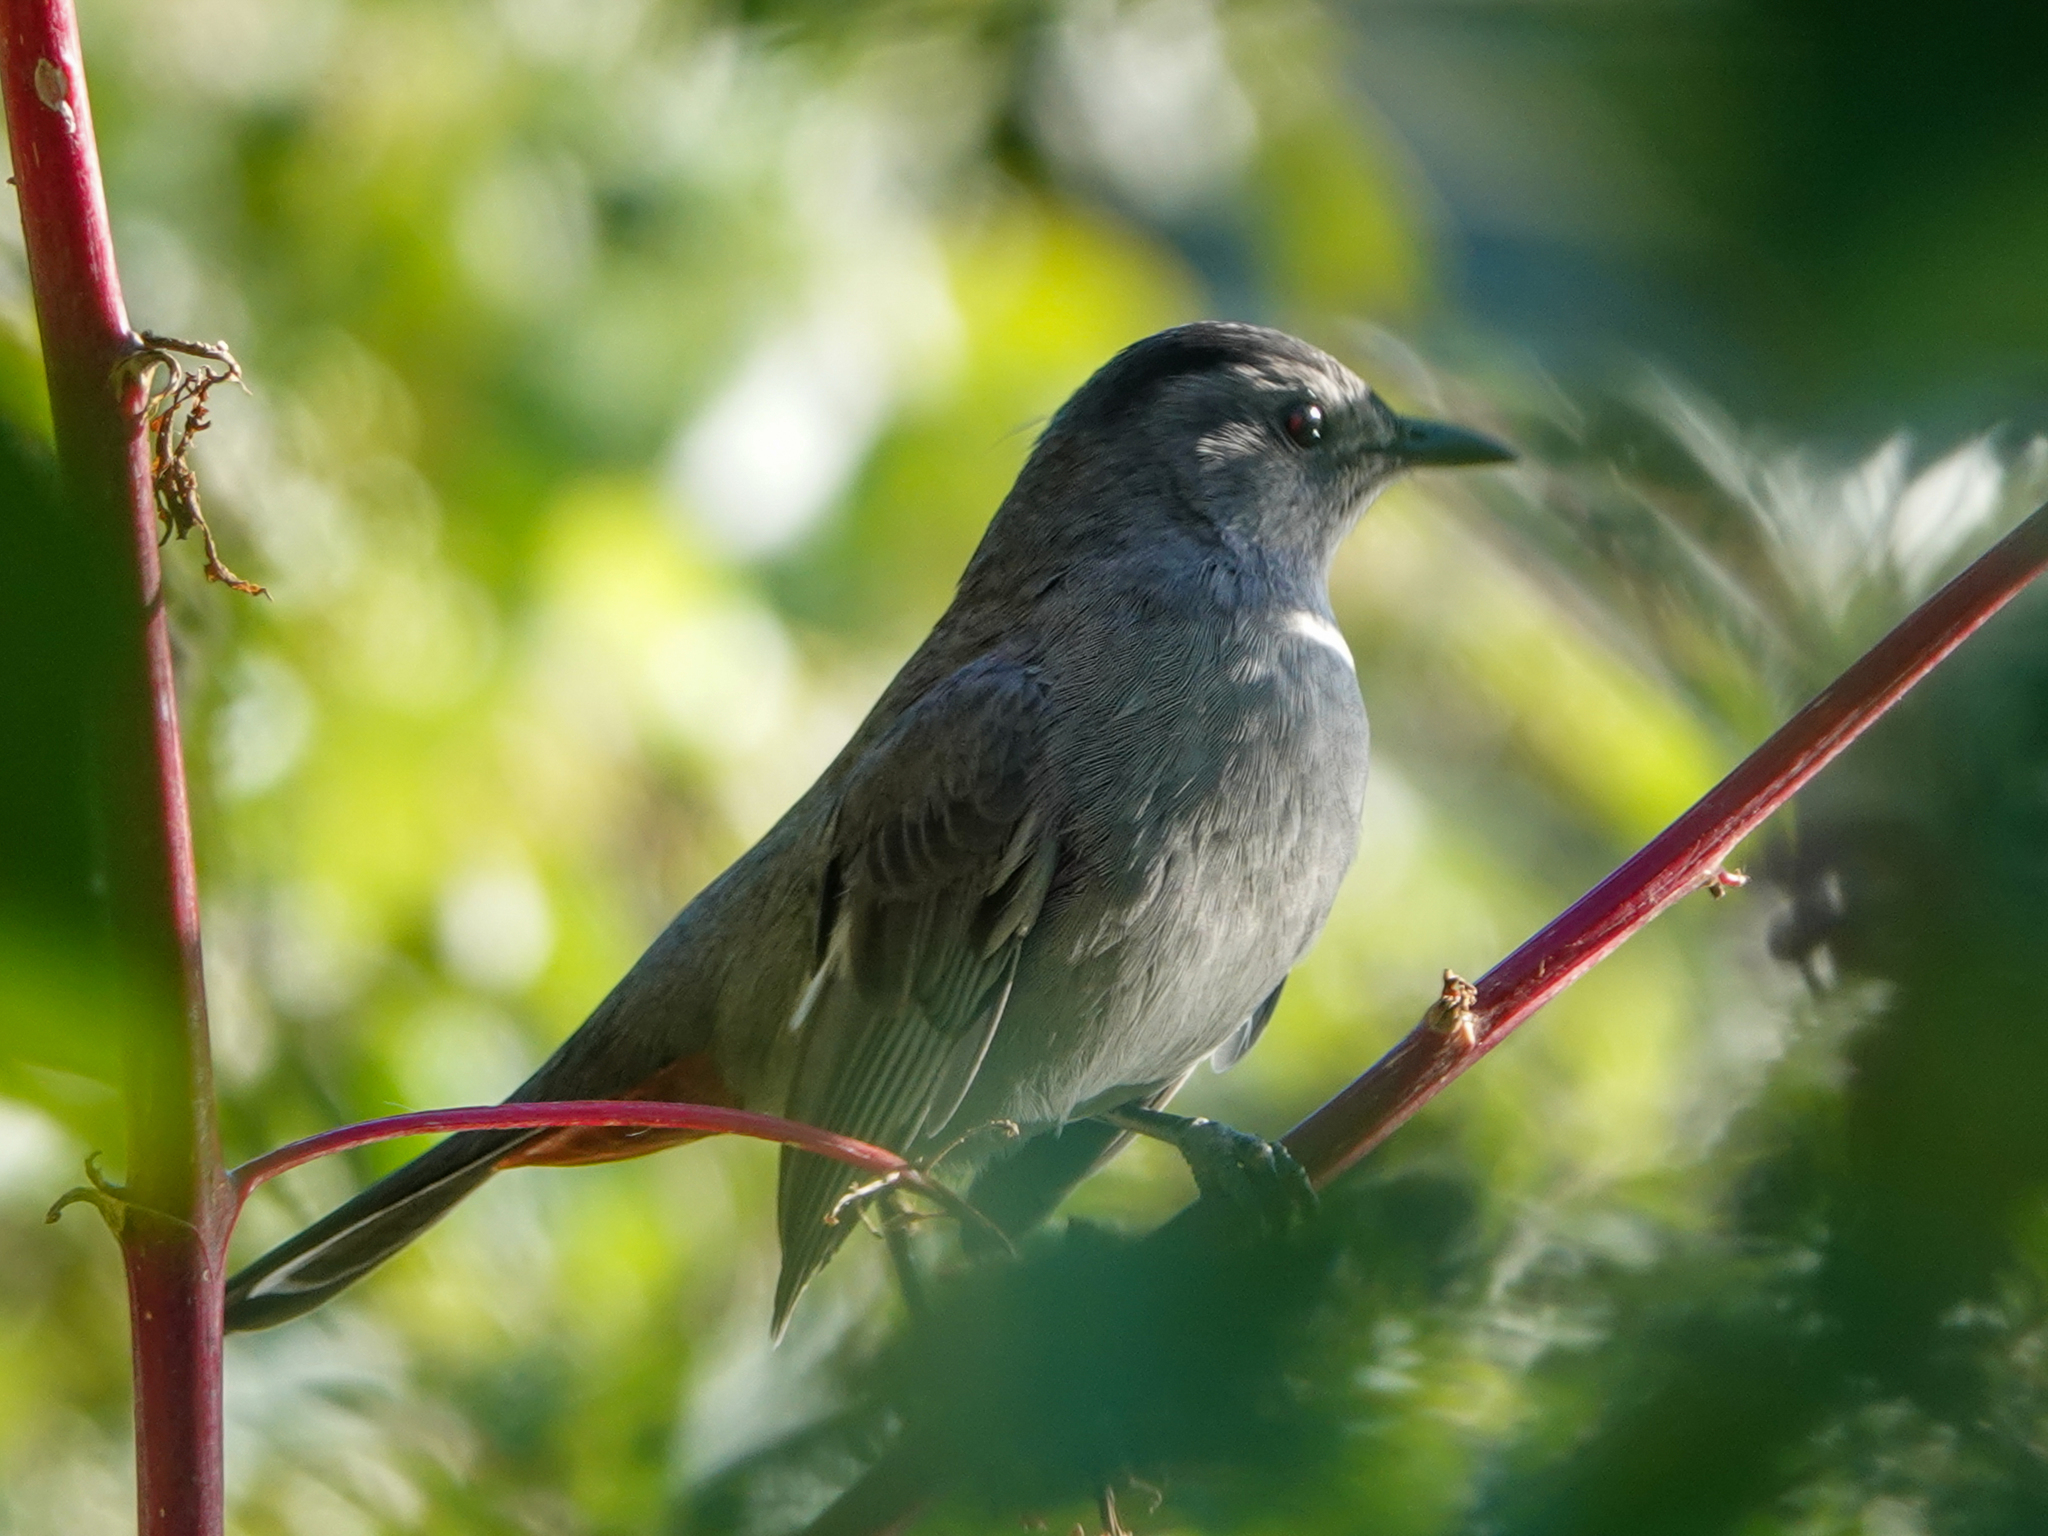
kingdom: Animalia
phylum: Chordata
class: Aves
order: Passeriformes
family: Mimidae
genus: Dumetella
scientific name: Dumetella carolinensis
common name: Gray catbird
